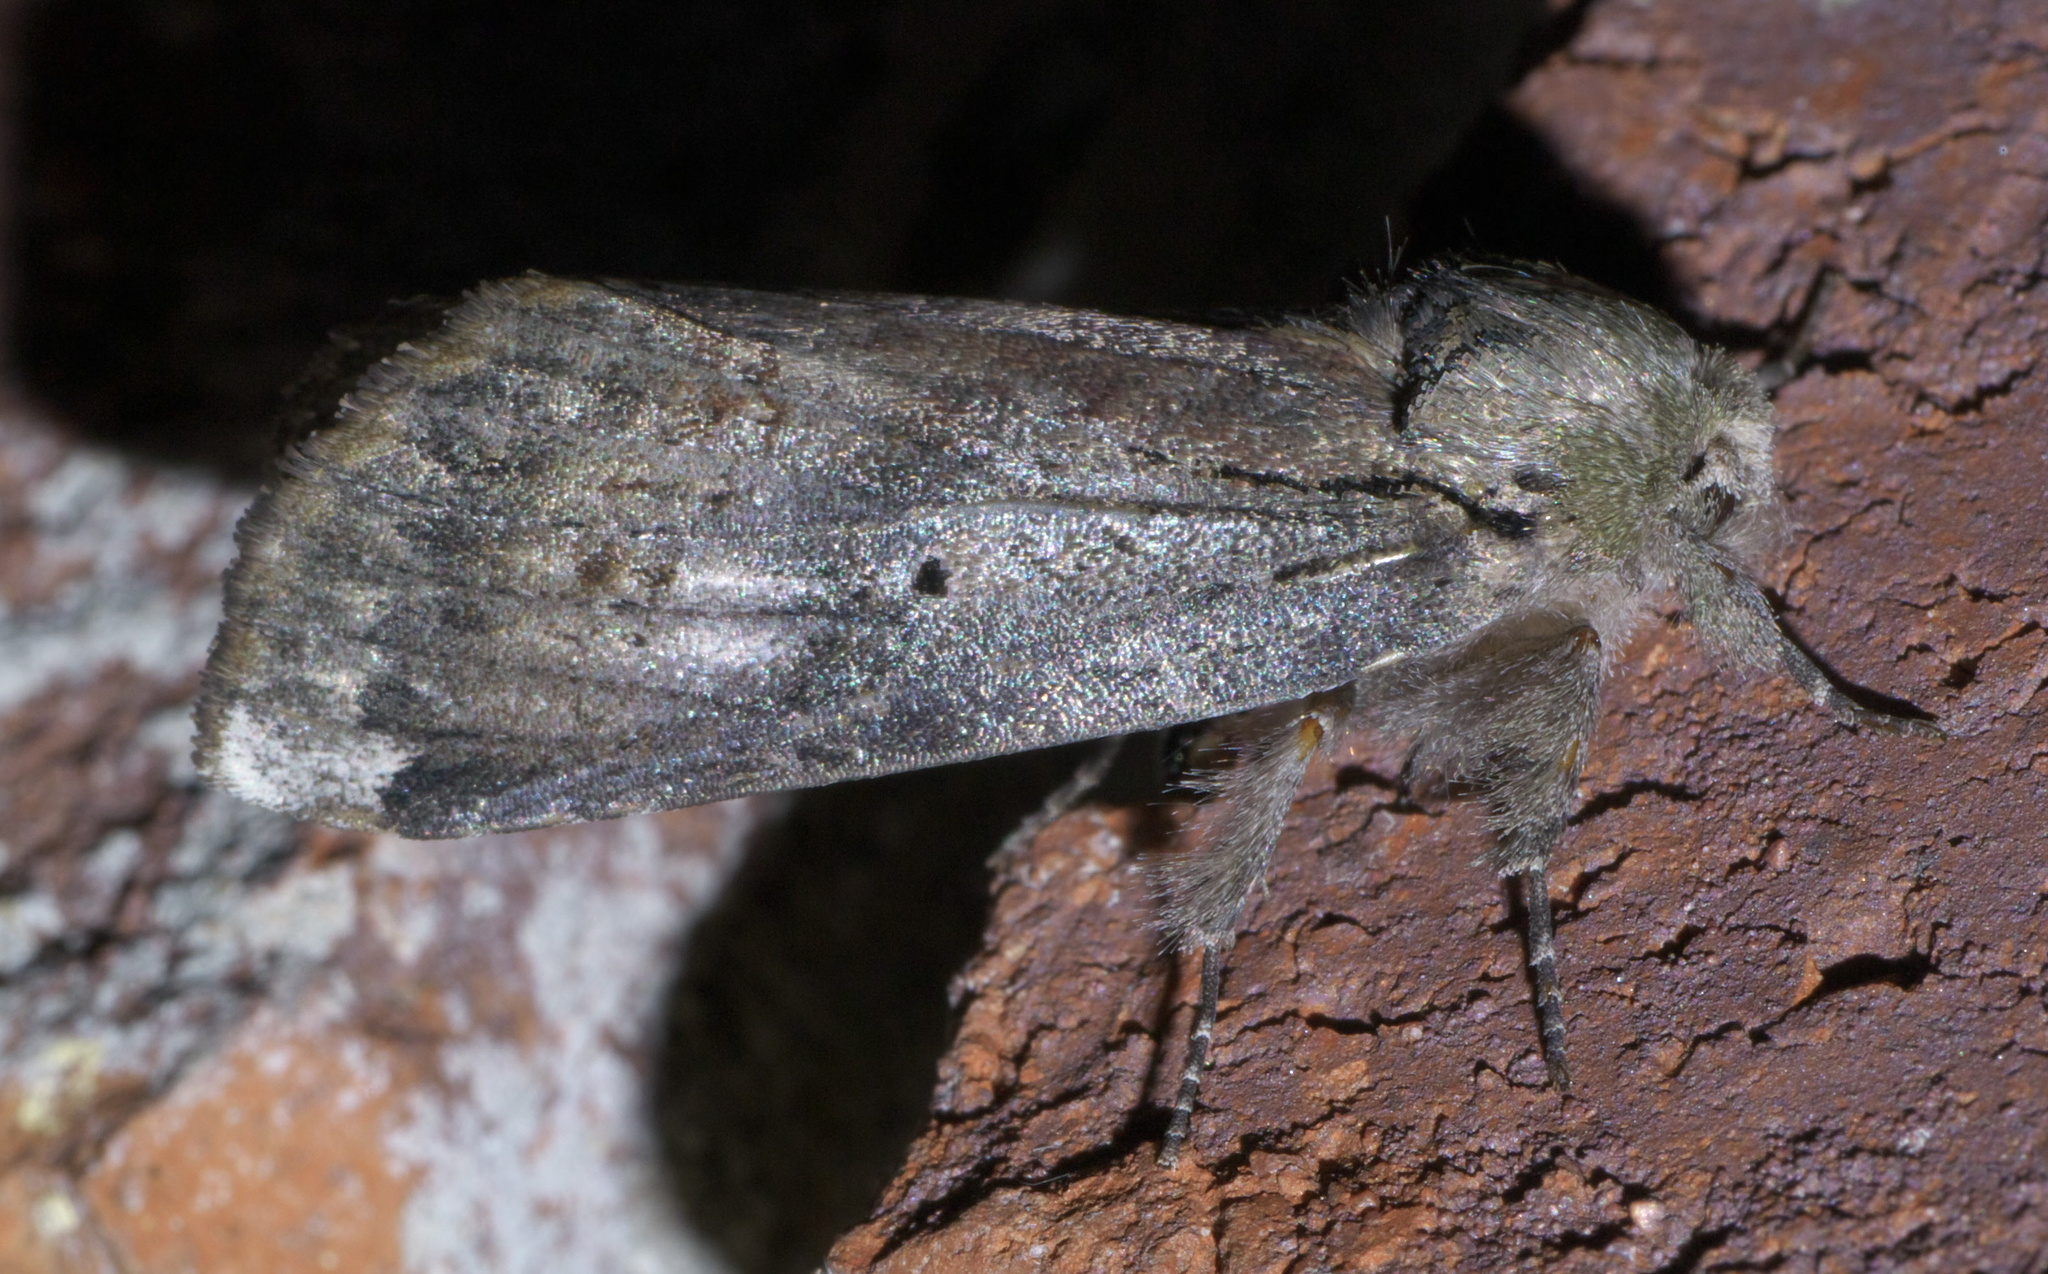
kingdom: Animalia
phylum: Arthropoda
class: Insecta
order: Lepidoptera
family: Notodontidae
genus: Schizura
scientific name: Schizura
